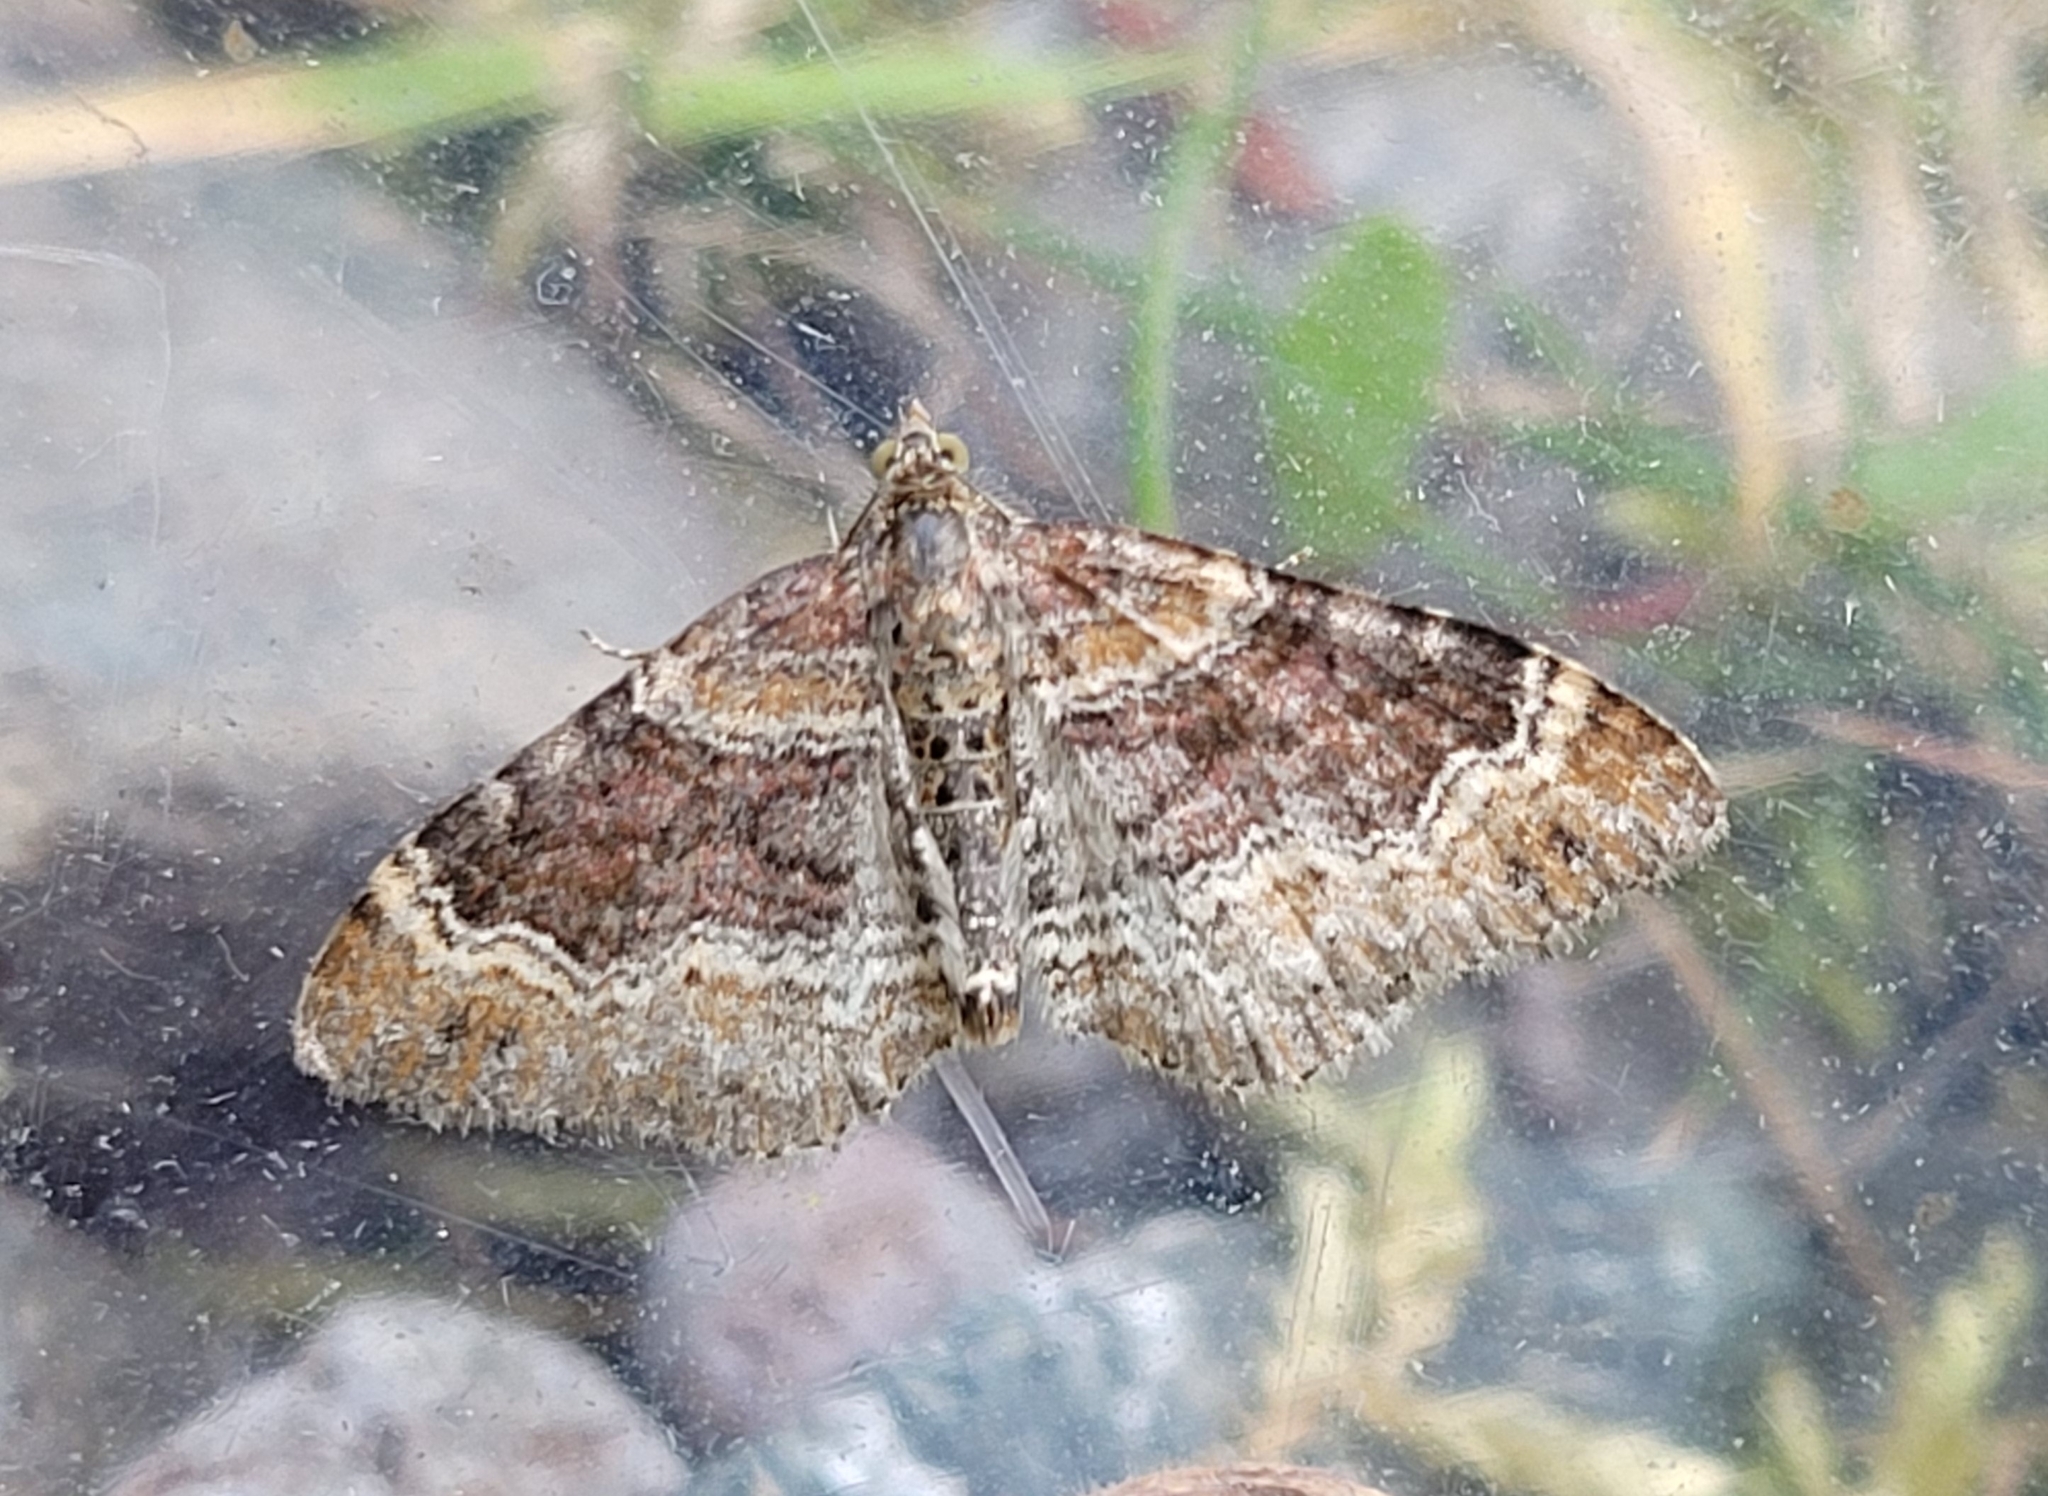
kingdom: Animalia
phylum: Arthropoda
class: Insecta
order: Lepidoptera
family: Geometridae
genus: Xanthorhoe
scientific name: Xanthorhoe spadicearia
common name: Red twin-spot carpet
